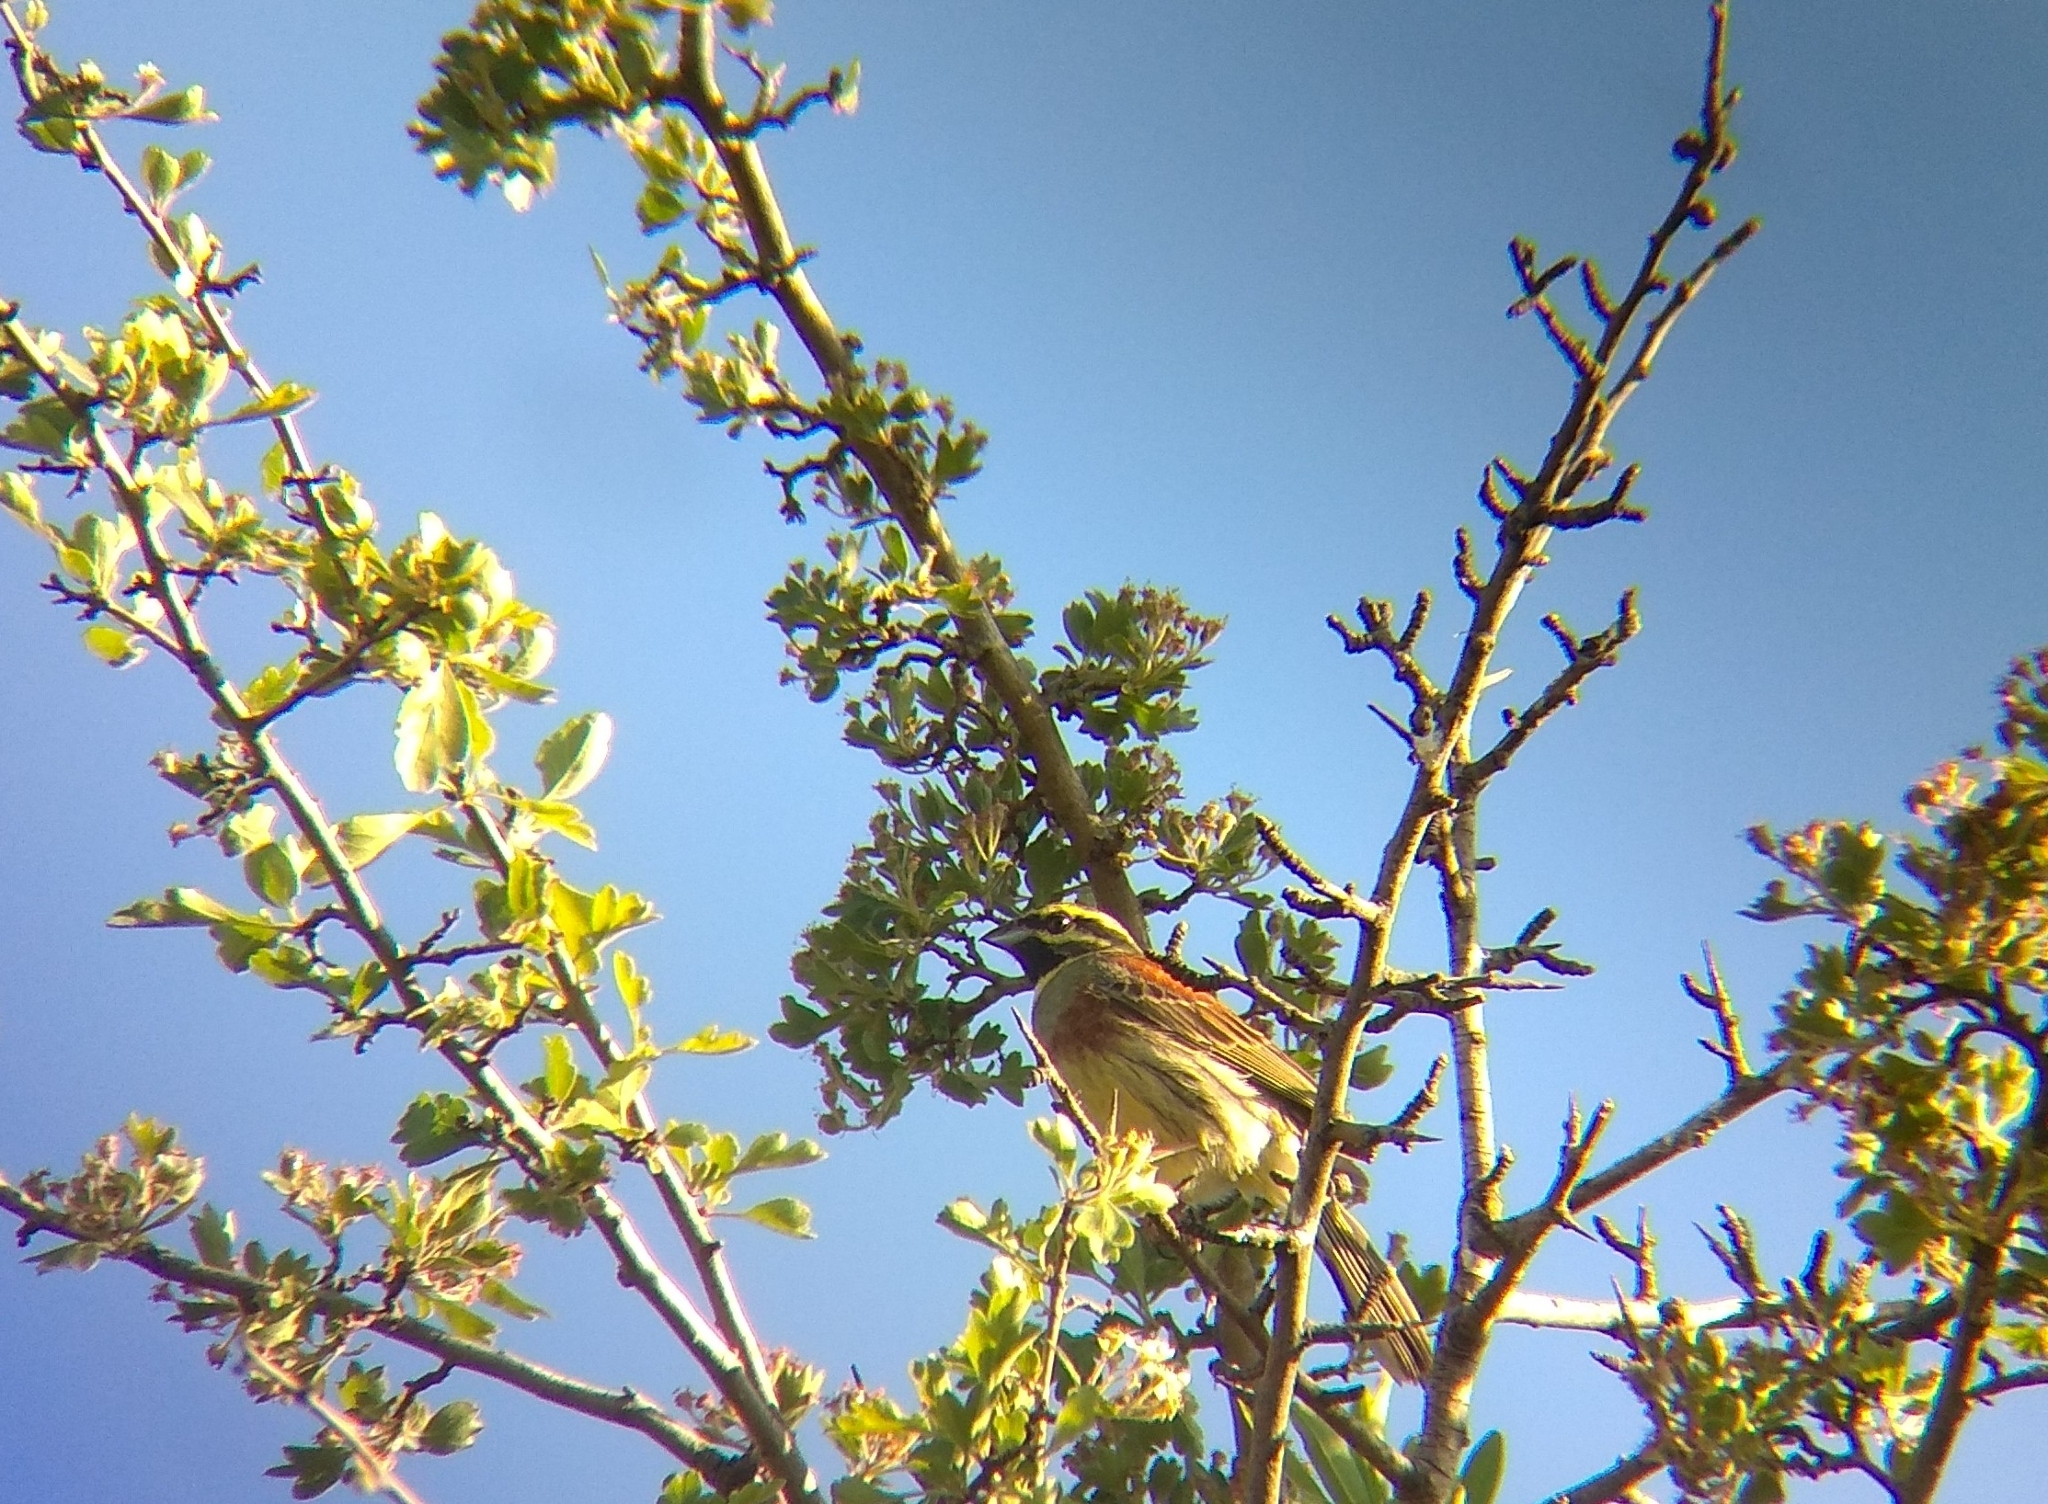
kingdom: Animalia
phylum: Chordata
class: Aves
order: Passeriformes
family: Emberizidae
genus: Emberiza
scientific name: Emberiza cirlus
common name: Cirl bunting
